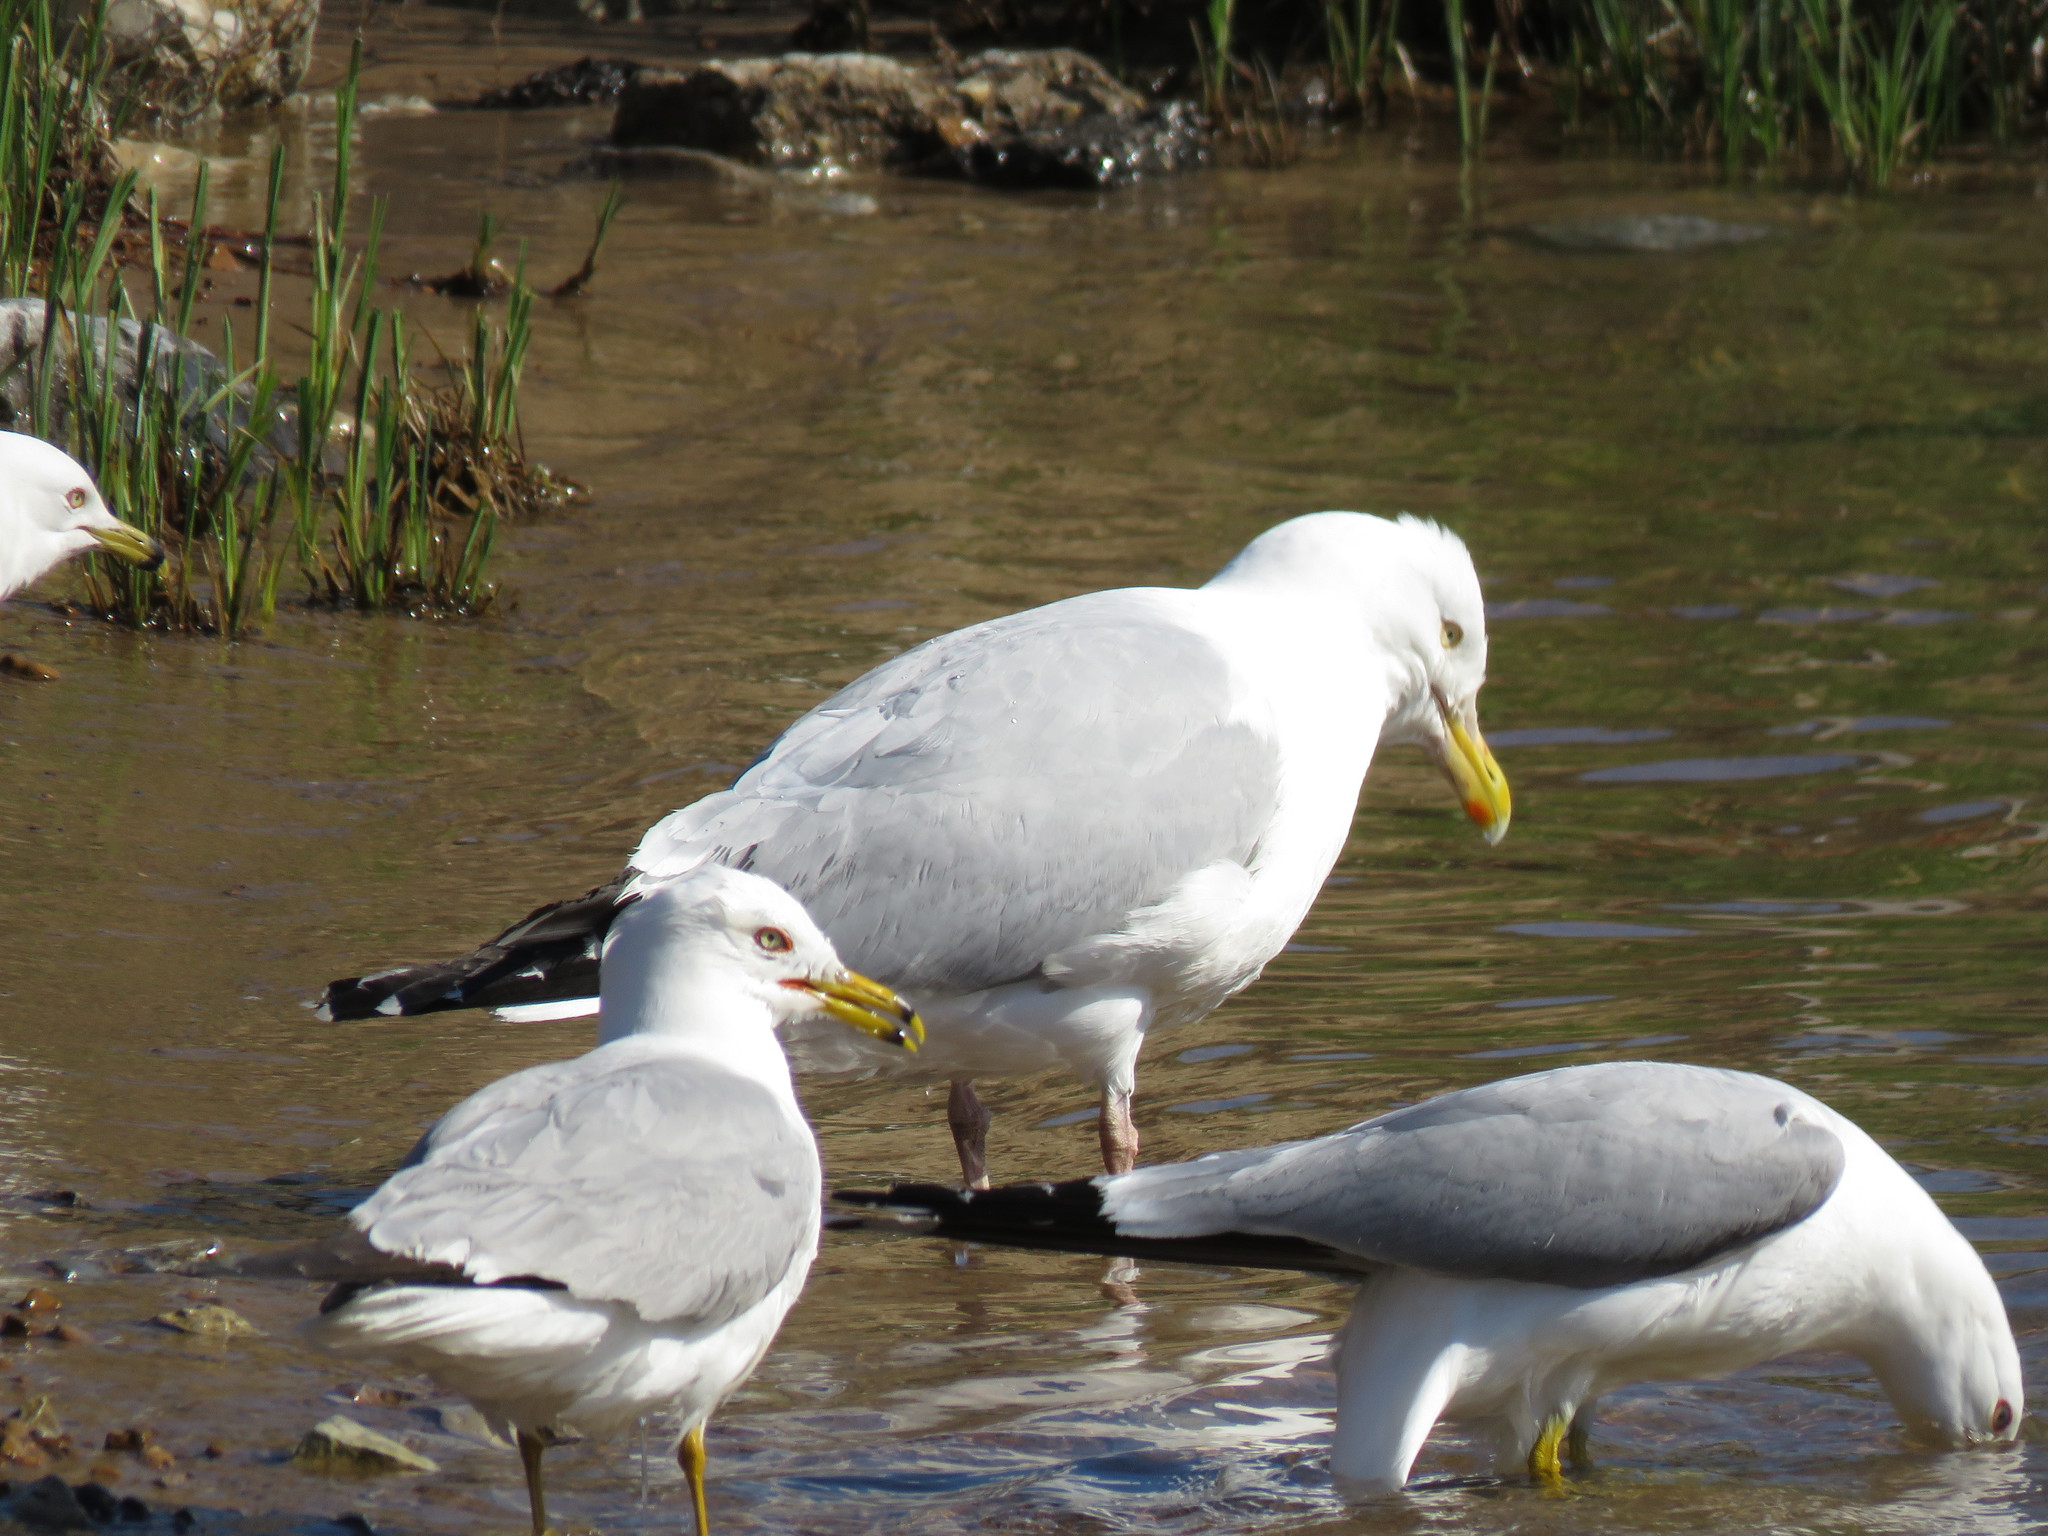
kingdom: Animalia
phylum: Chordata
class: Aves
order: Charadriiformes
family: Laridae
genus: Larus
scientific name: Larus argentatus
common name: Herring gull
